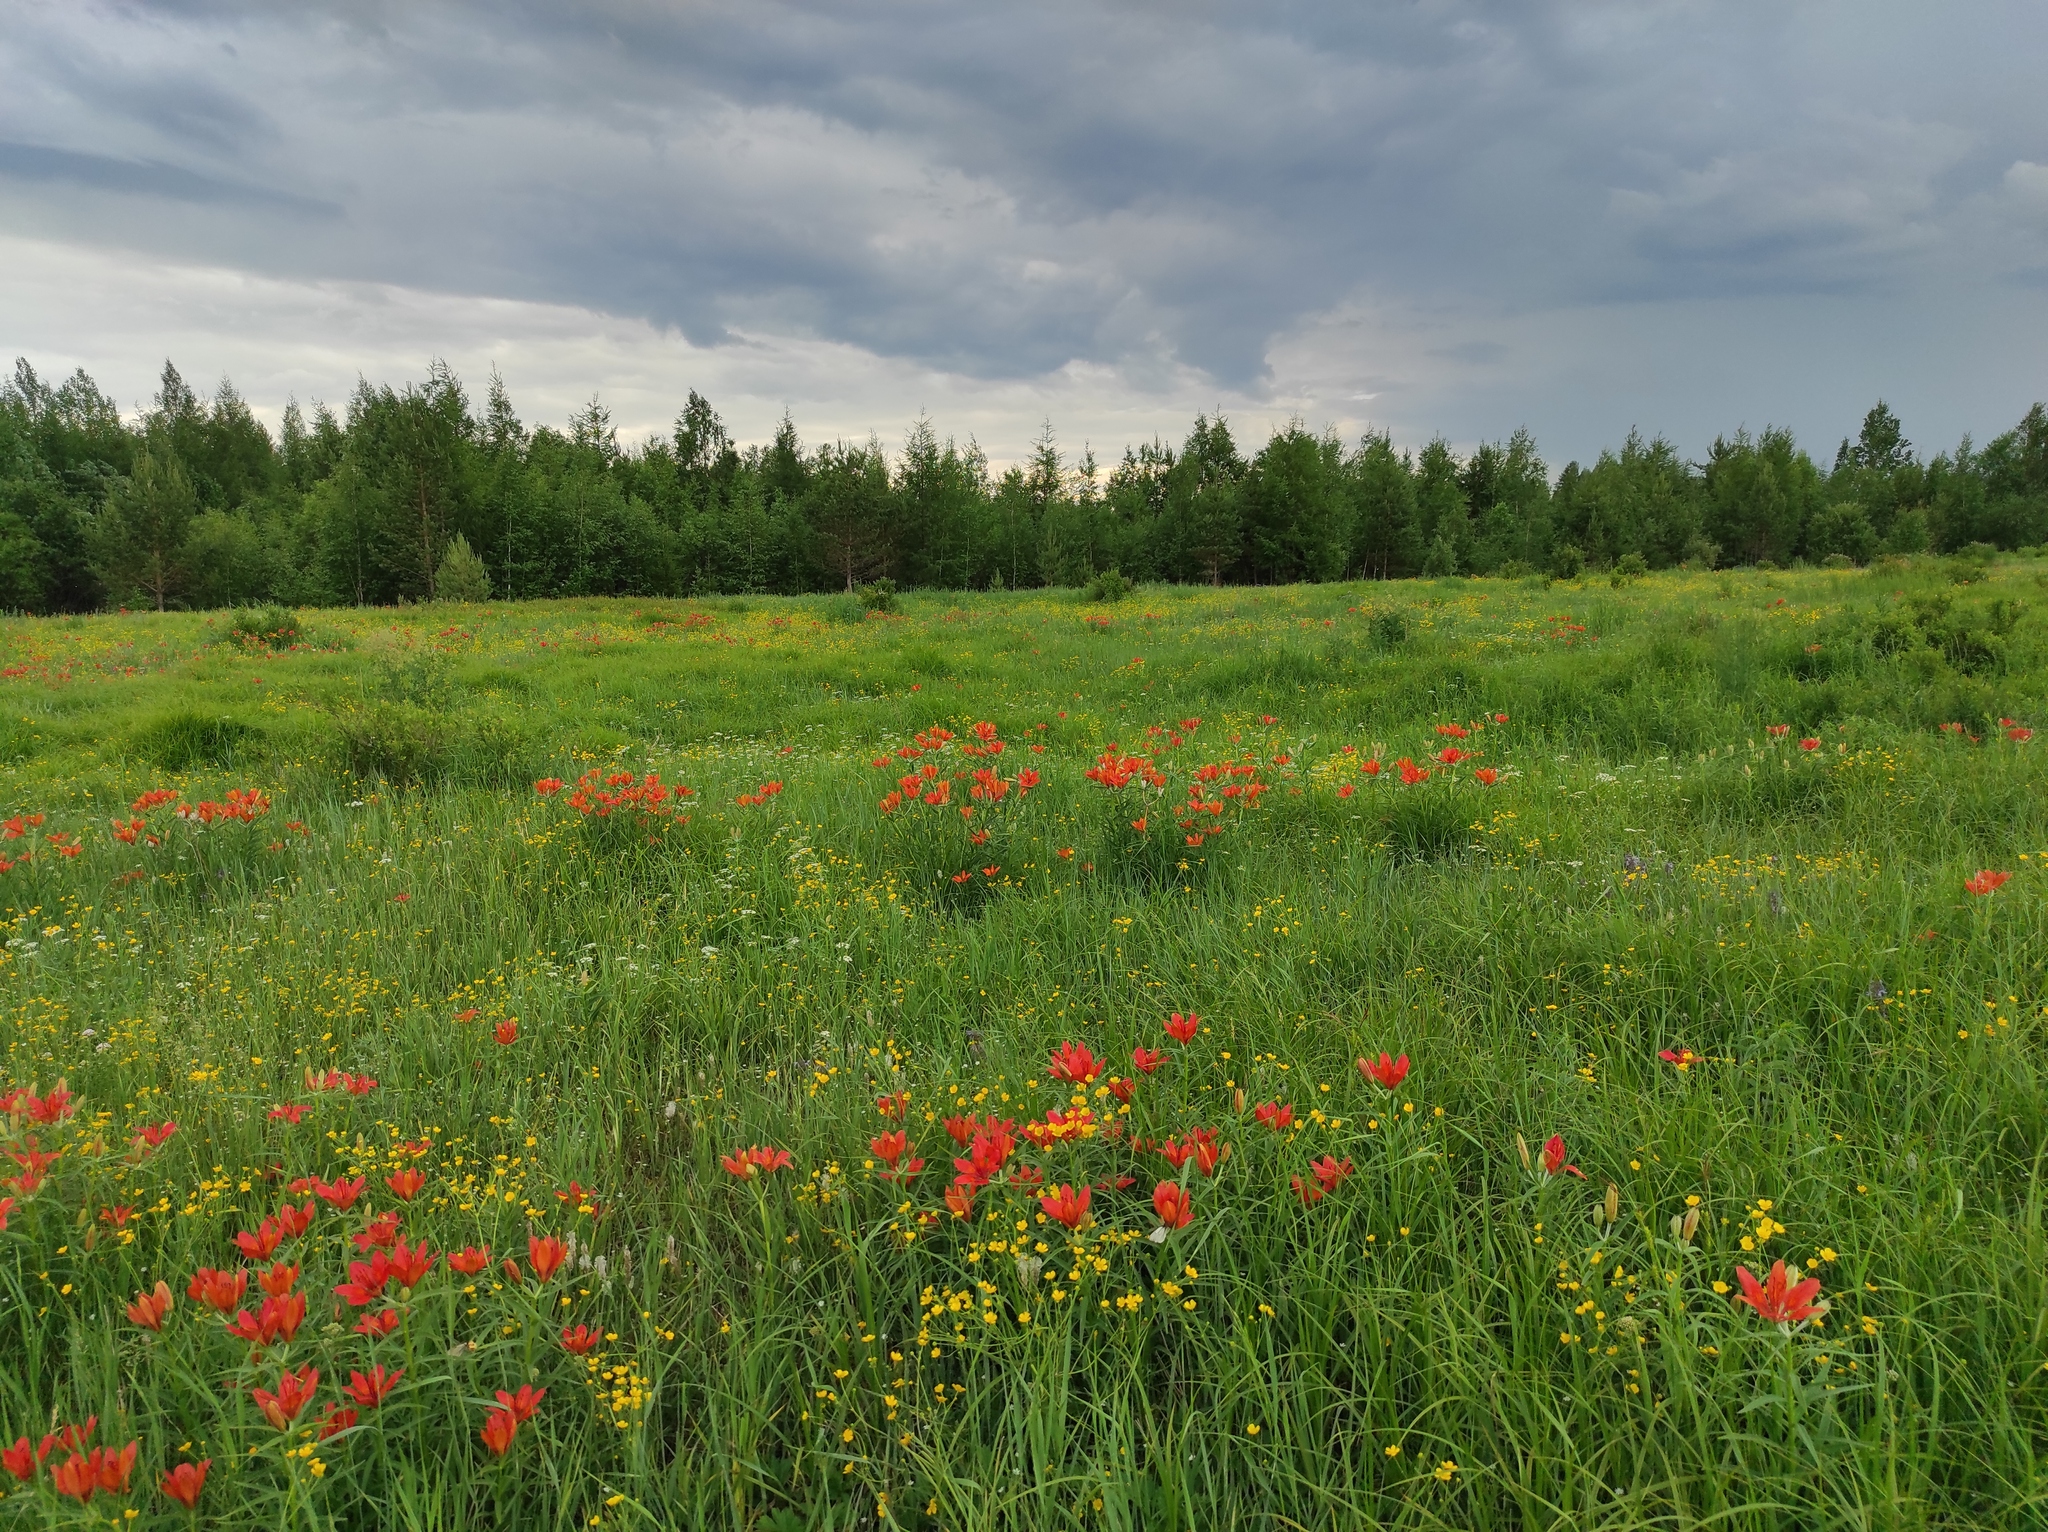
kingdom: Plantae
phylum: Tracheophyta
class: Magnoliopsida
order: Ranunculales
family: Ranunculaceae
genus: Ranunculus
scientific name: Ranunculus acris
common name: Meadow buttercup
